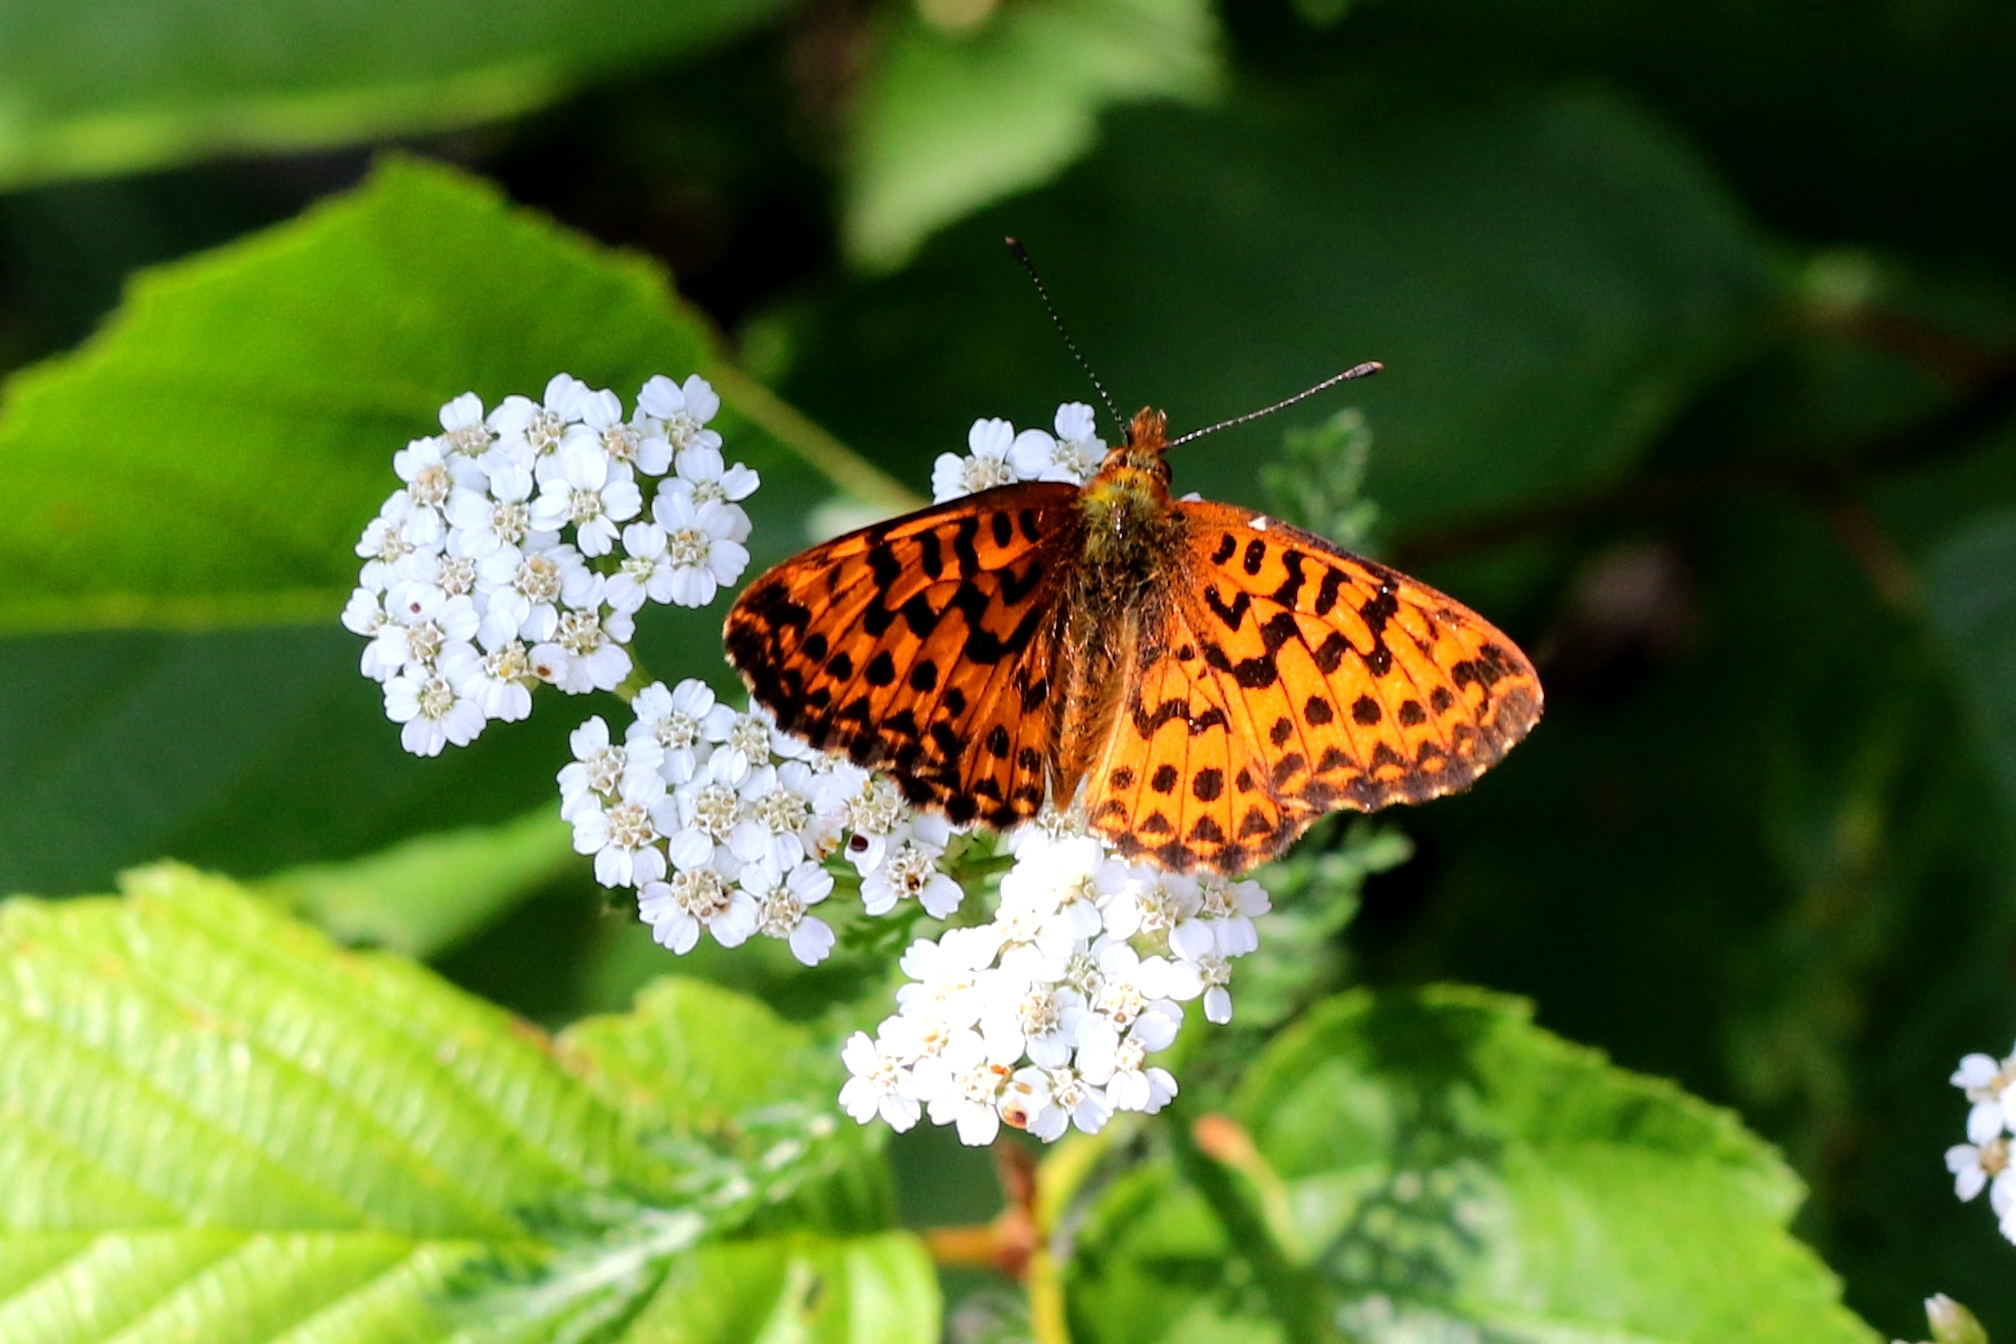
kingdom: Animalia
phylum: Arthropoda
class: Insecta
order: Lepidoptera
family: Nymphalidae
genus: Clossiana
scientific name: Clossiana chariclea
